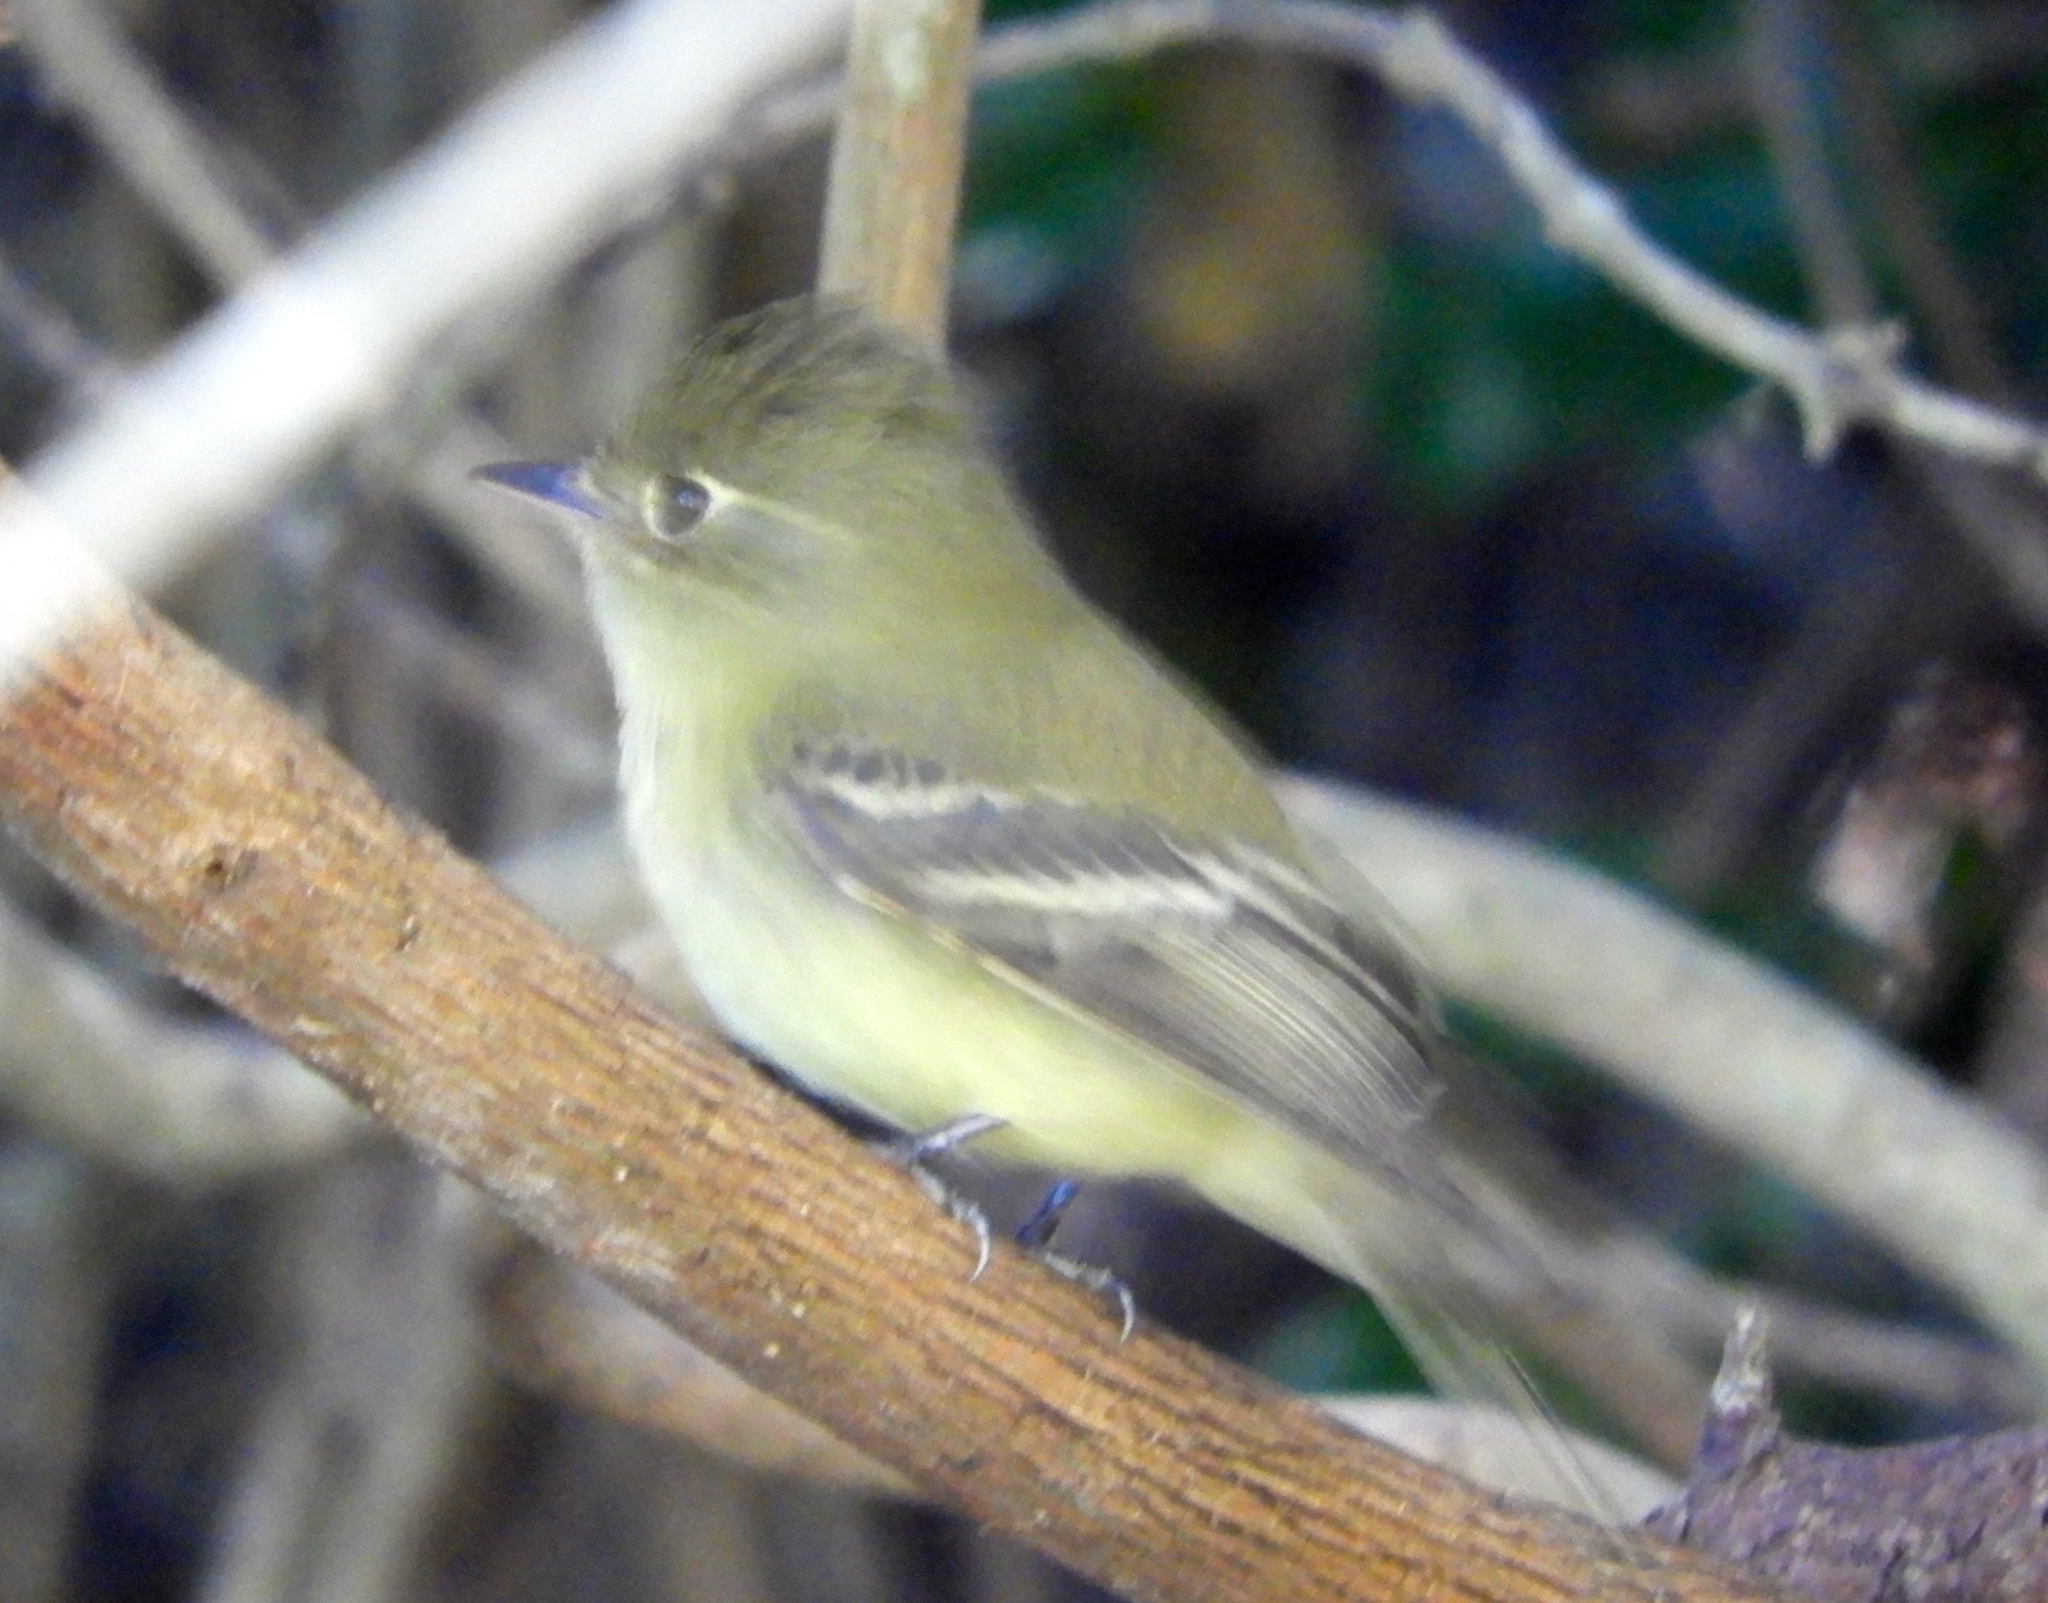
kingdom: Animalia
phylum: Chordata
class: Aves
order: Passeriformes
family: Tyrannidae
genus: Empidonax
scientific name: Empidonax
